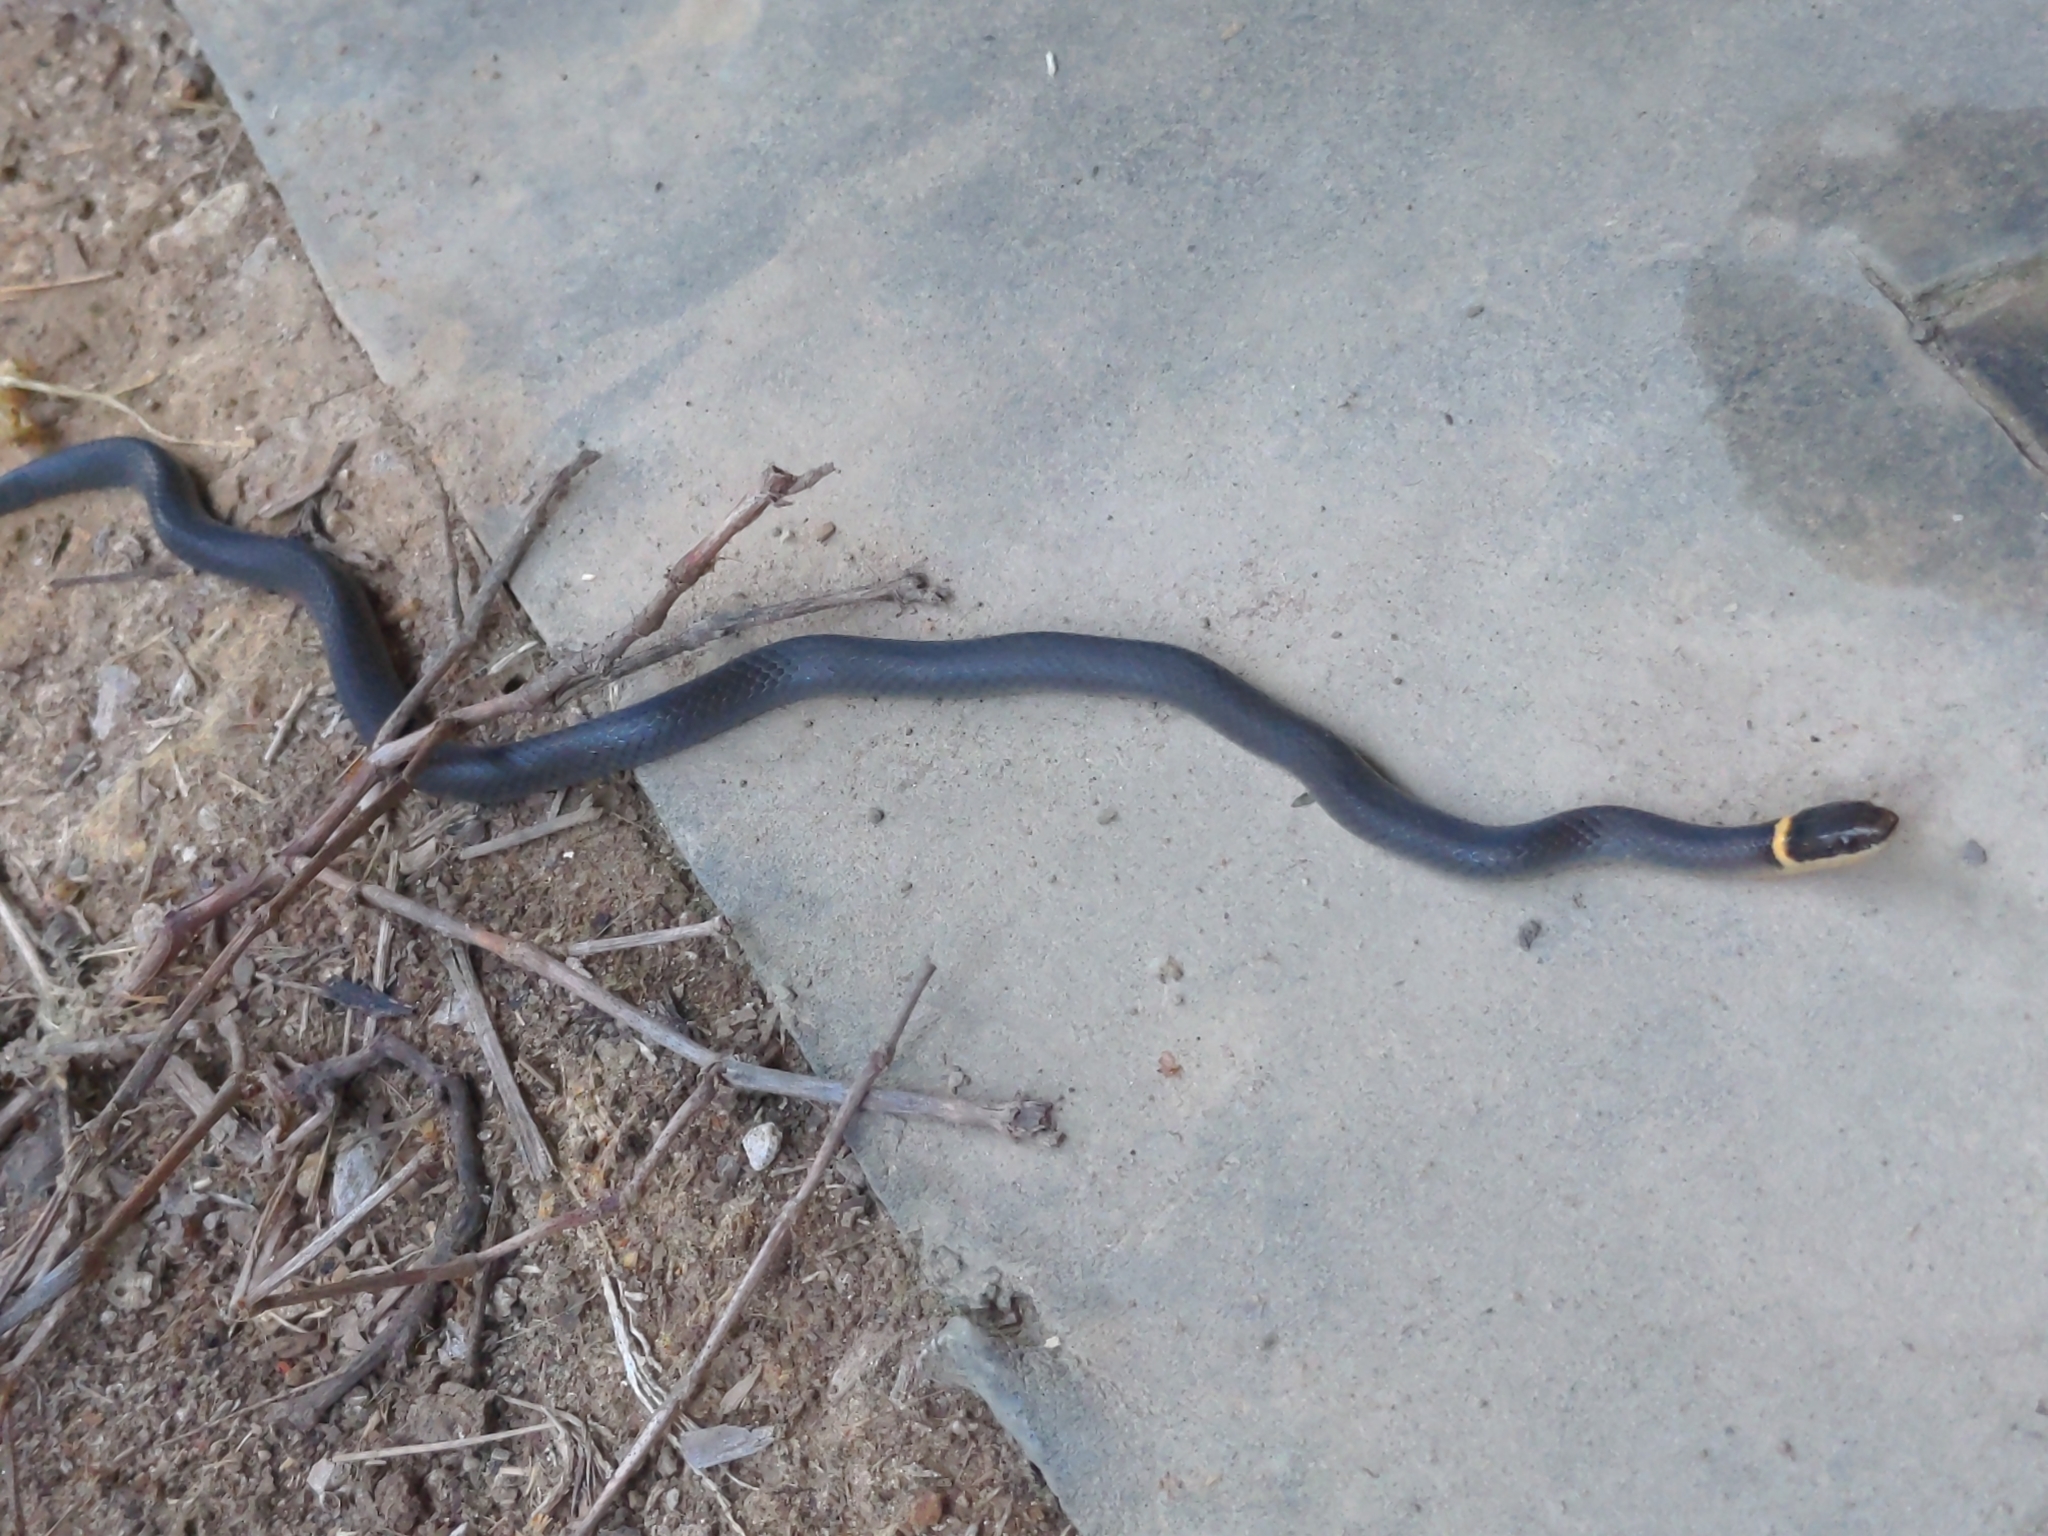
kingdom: Animalia
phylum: Chordata
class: Squamata
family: Colubridae
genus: Diadophis
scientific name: Diadophis punctatus
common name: Ringneck snake
